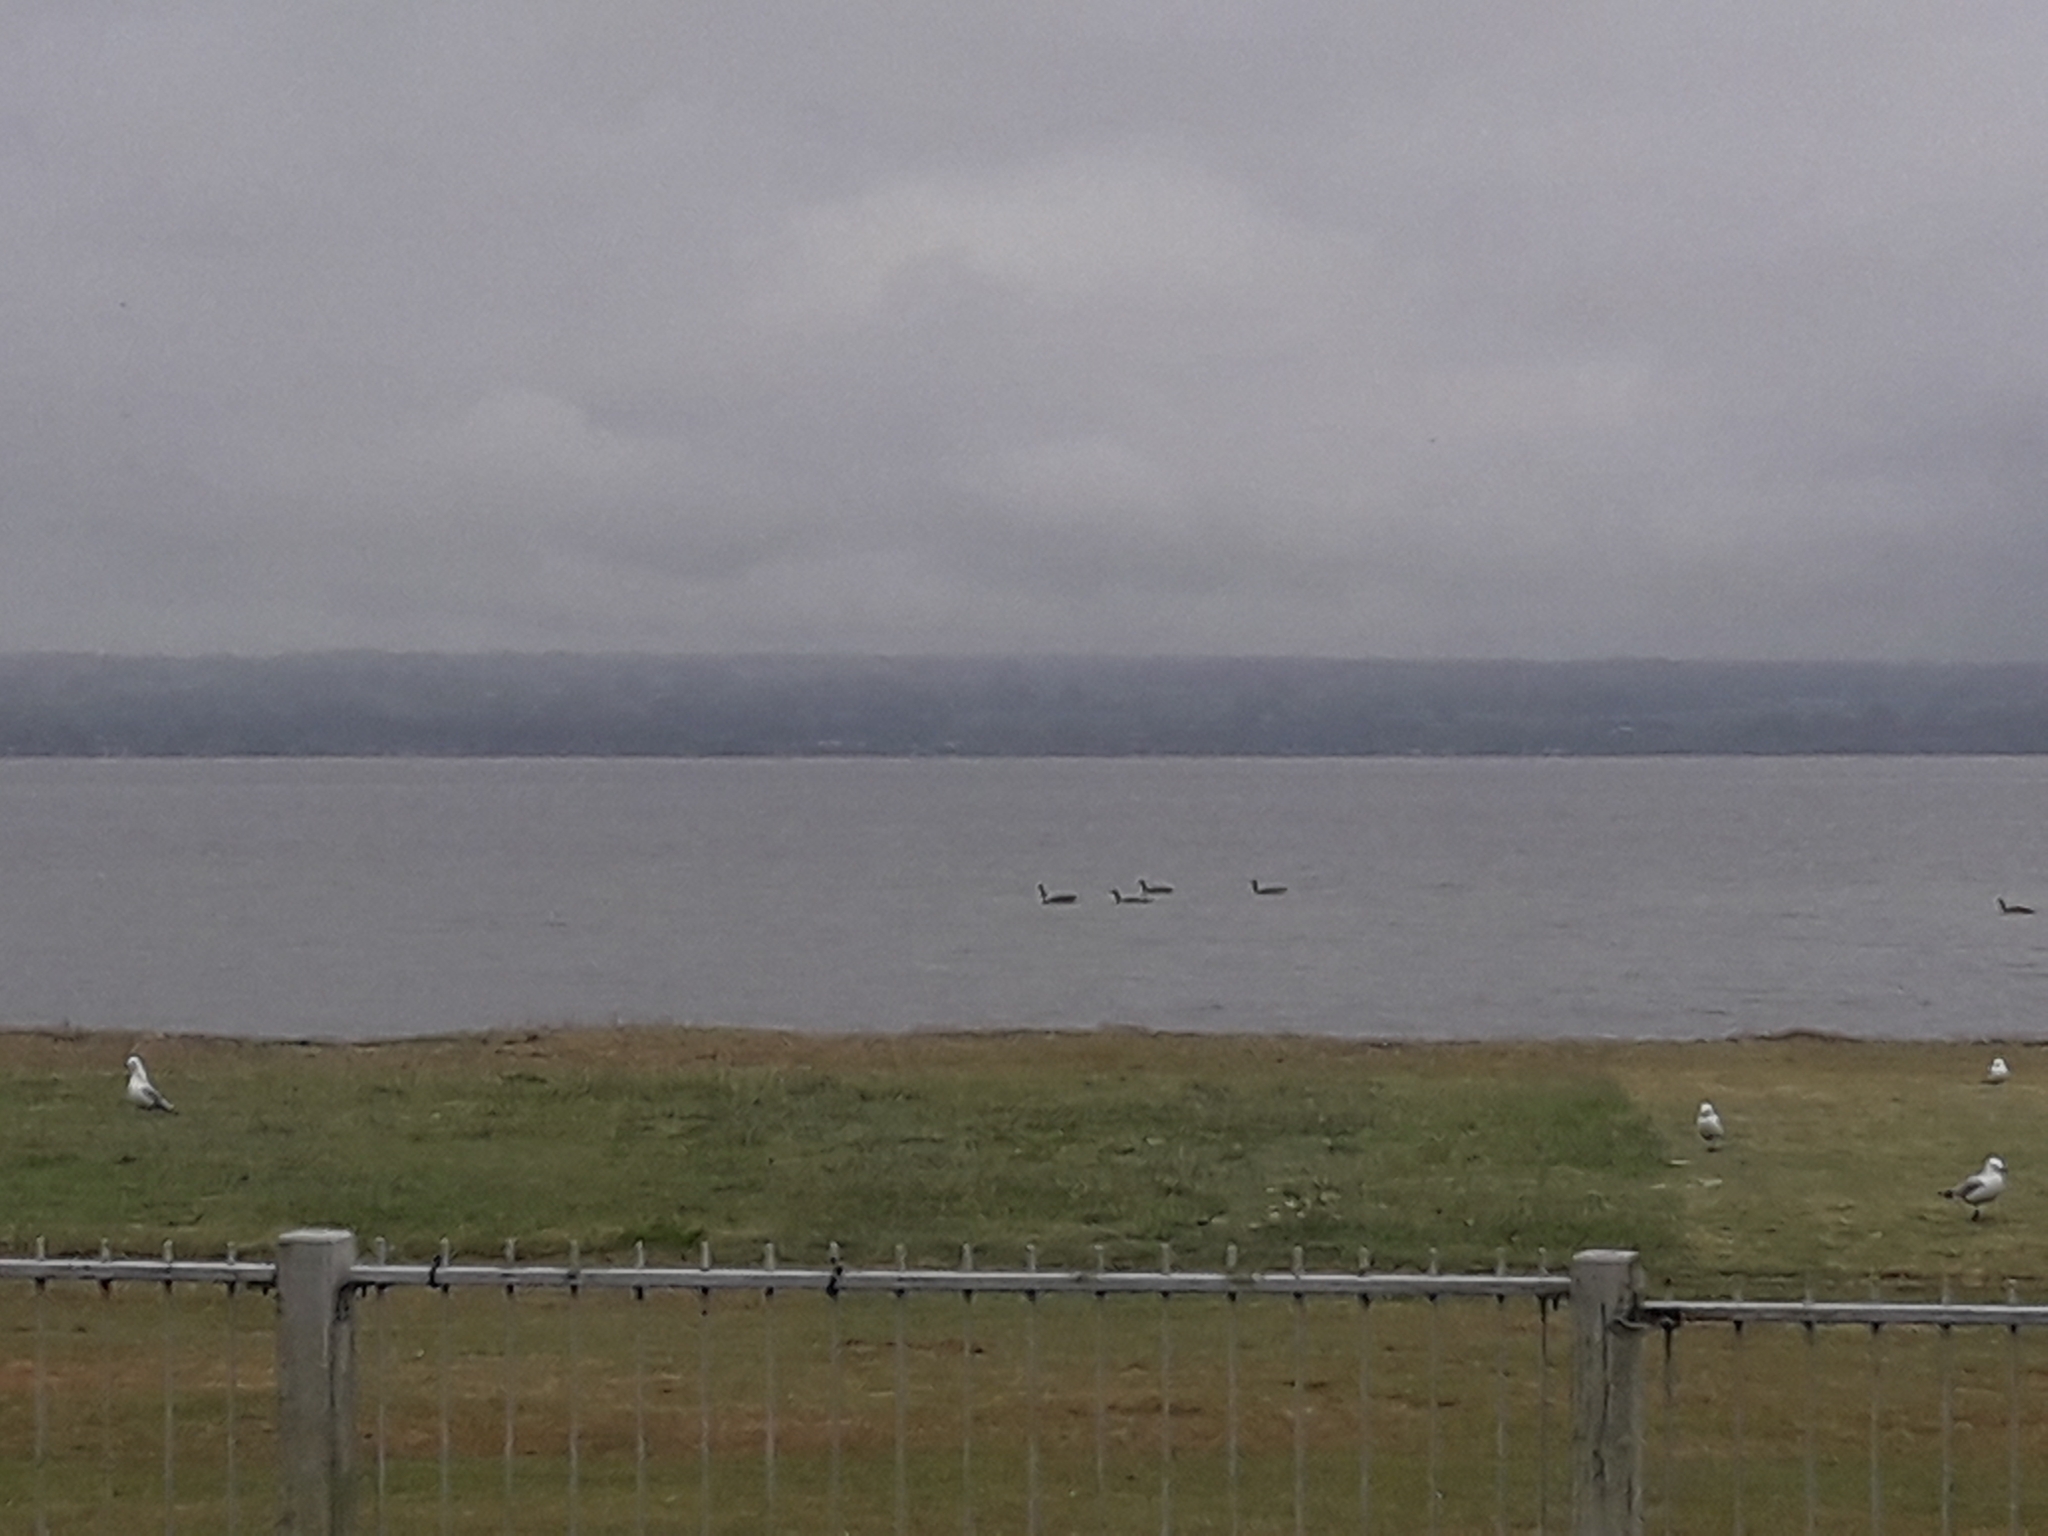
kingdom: Animalia
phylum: Chordata
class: Aves
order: Anseriformes
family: Anatidae
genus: Branta
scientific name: Branta canadensis
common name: Canada goose
